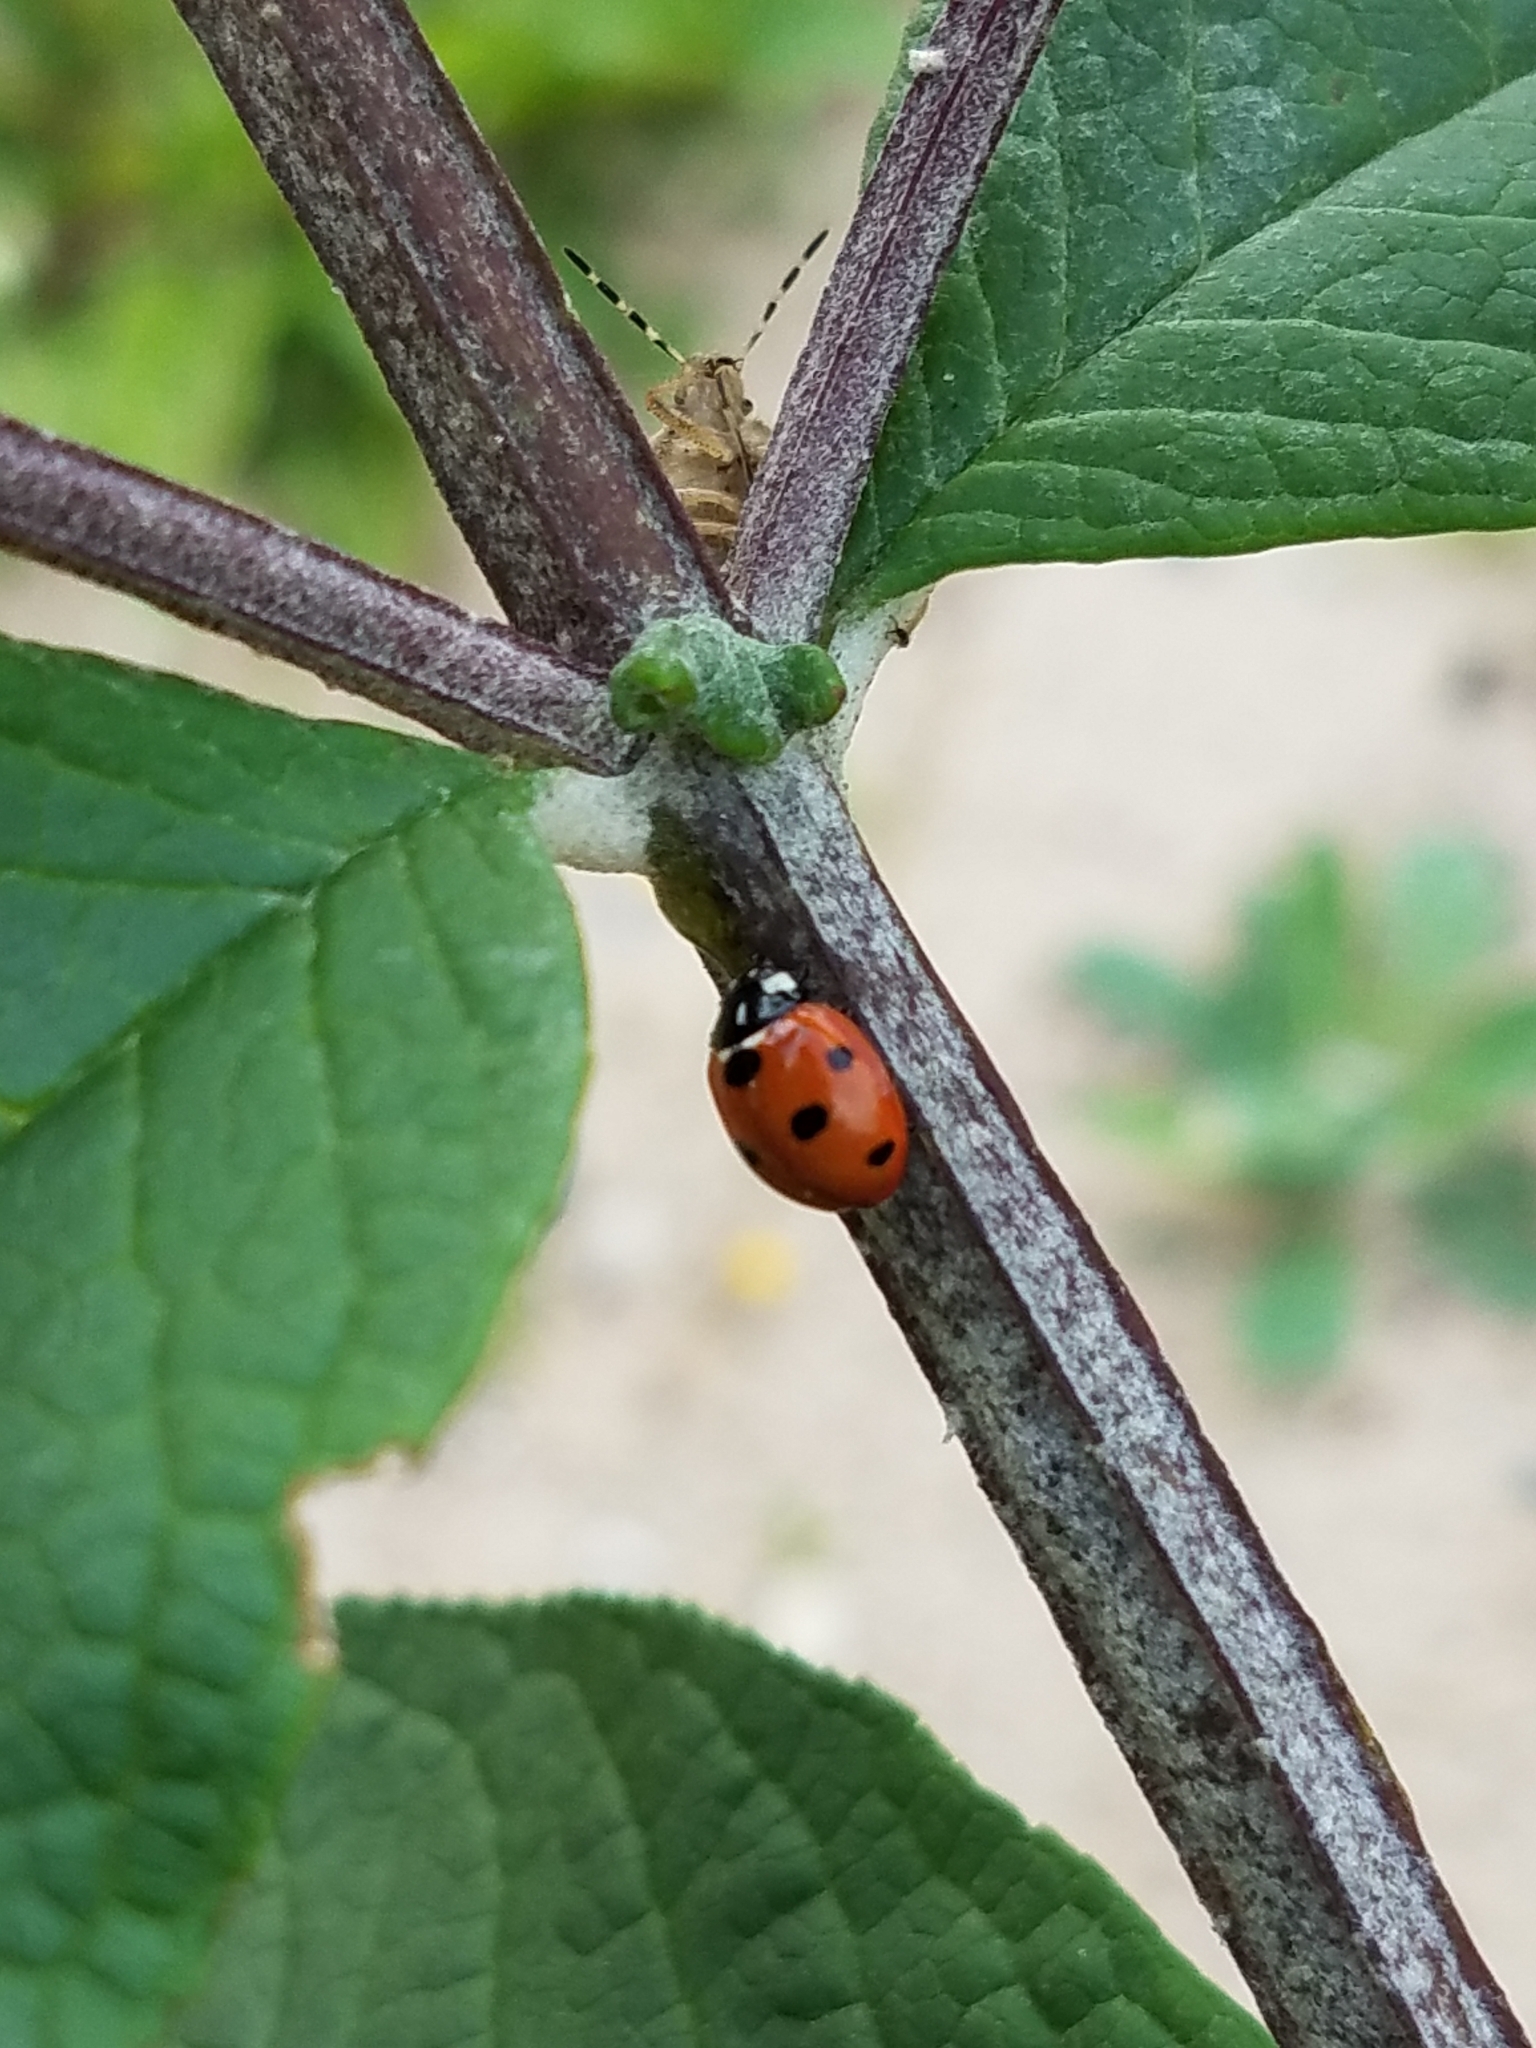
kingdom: Animalia
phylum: Arthropoda
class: Insecta
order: Coleoptera
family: Coccinellidae
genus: Coccinella
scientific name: Coccinella septempunctata
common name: Sevenspotted lady beetle
